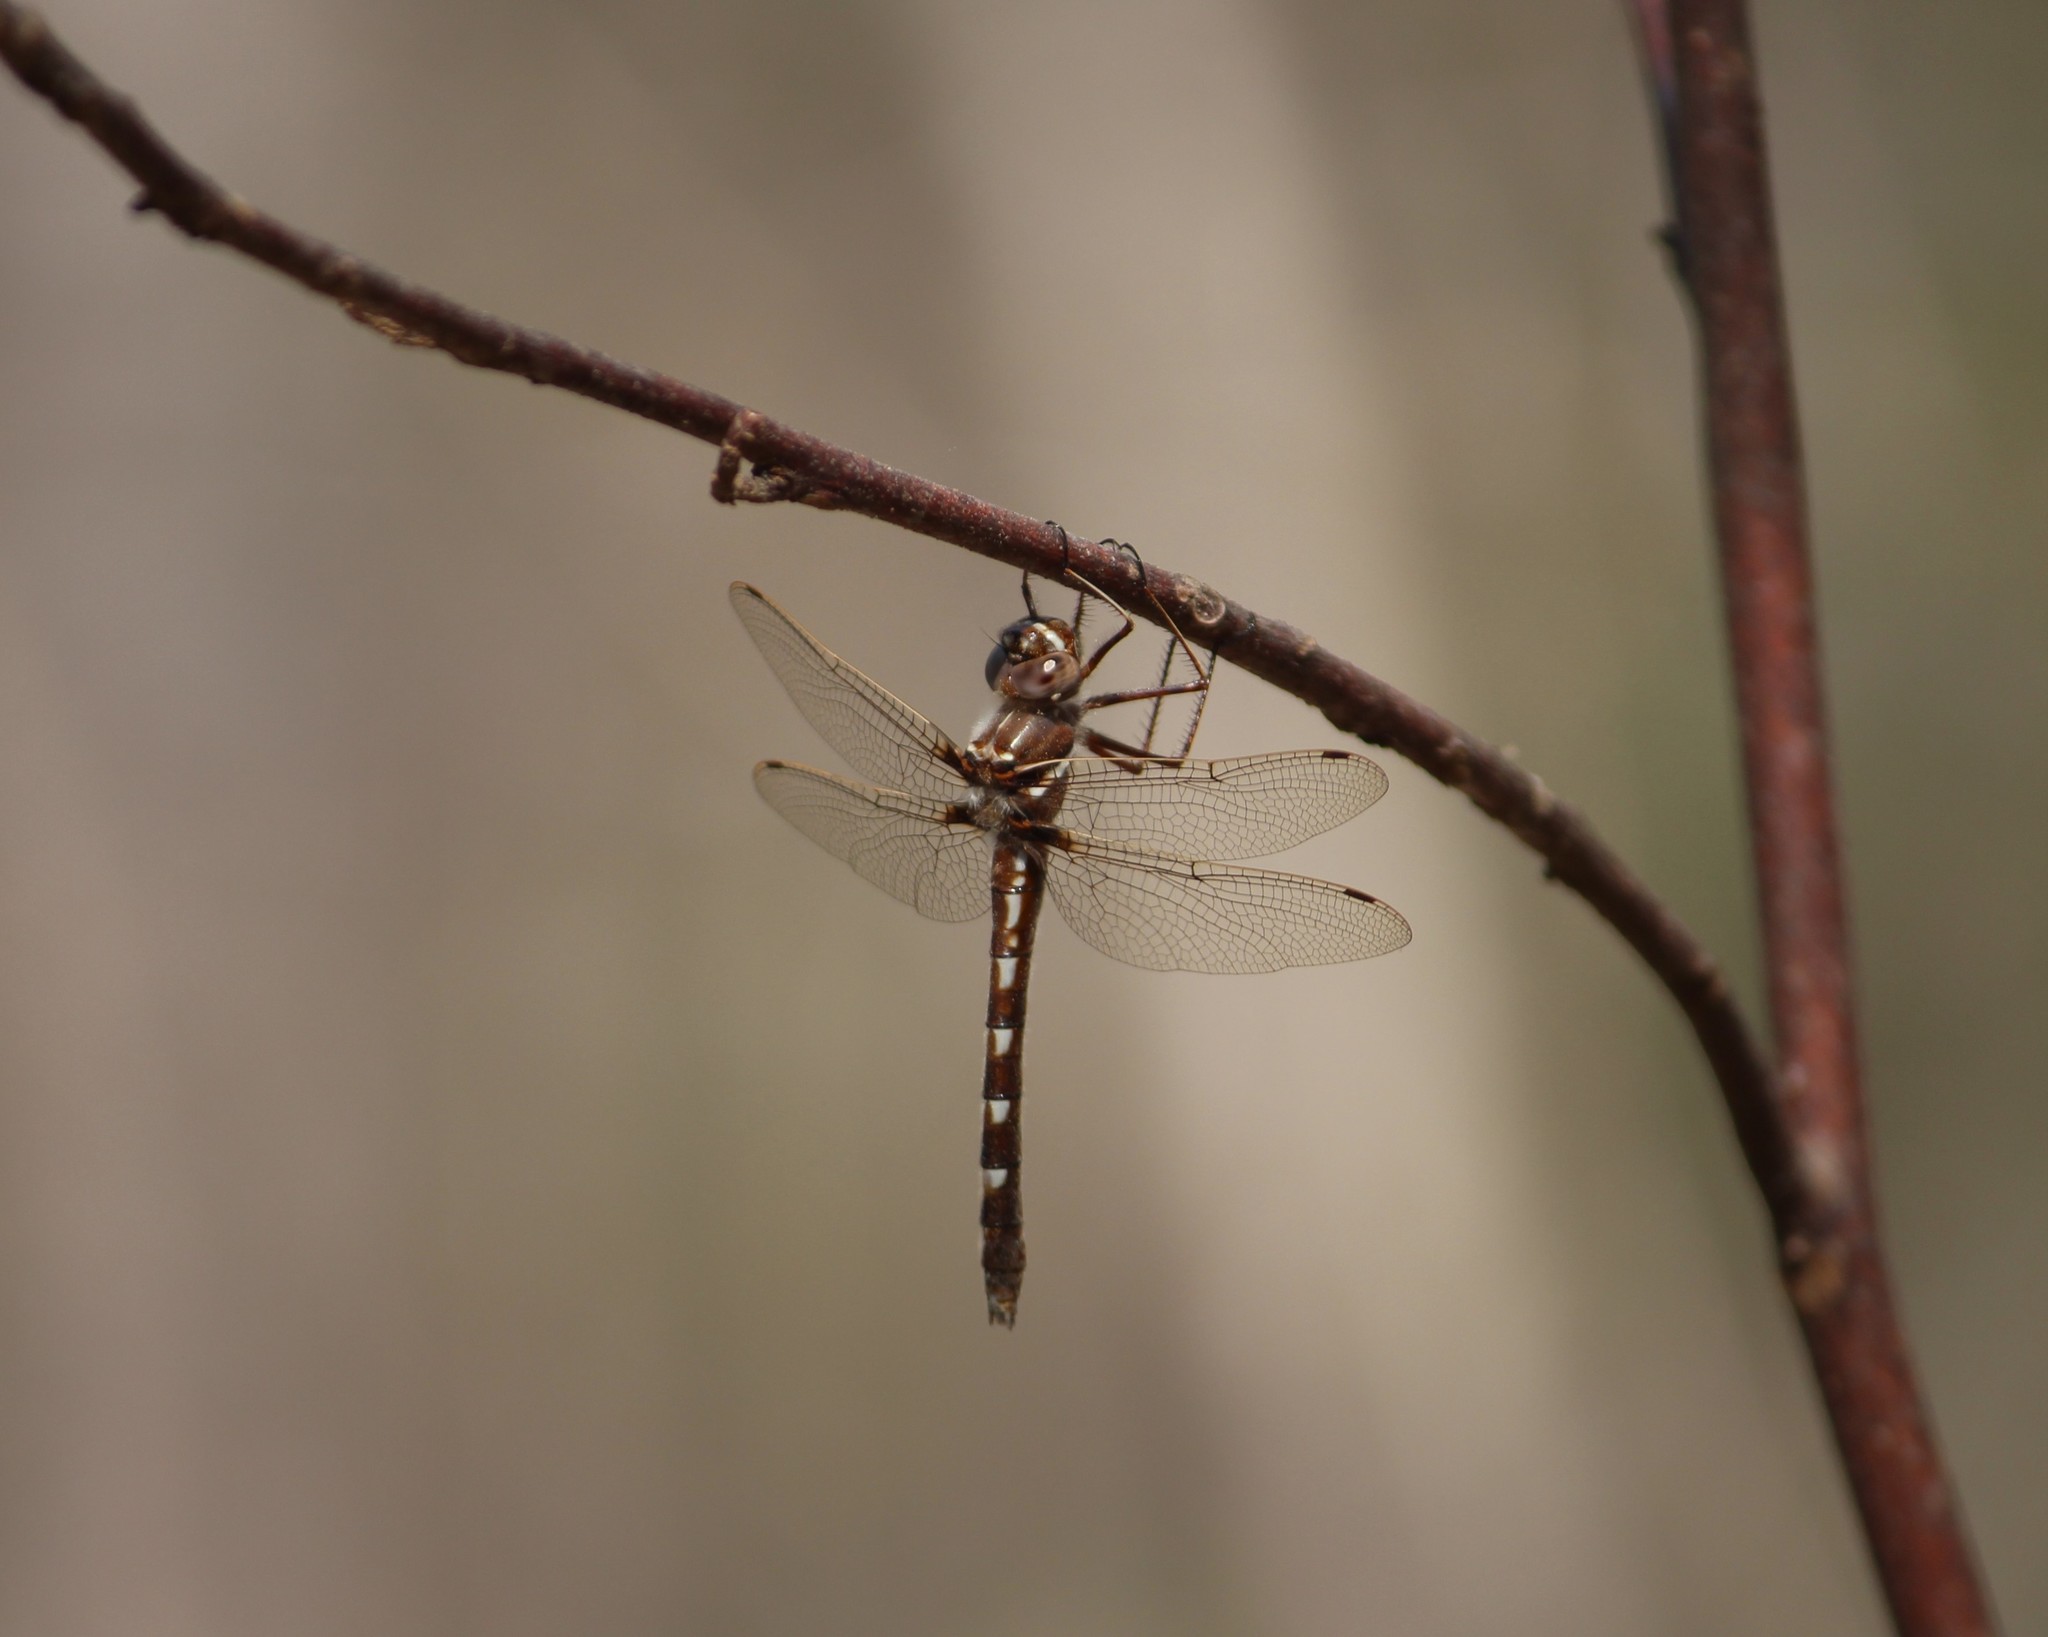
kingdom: Animalia
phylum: Arthropoda
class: Insecta
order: Odonata
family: Macromiidae
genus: Didymops
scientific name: Didymops transversa
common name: Stream cruiser
